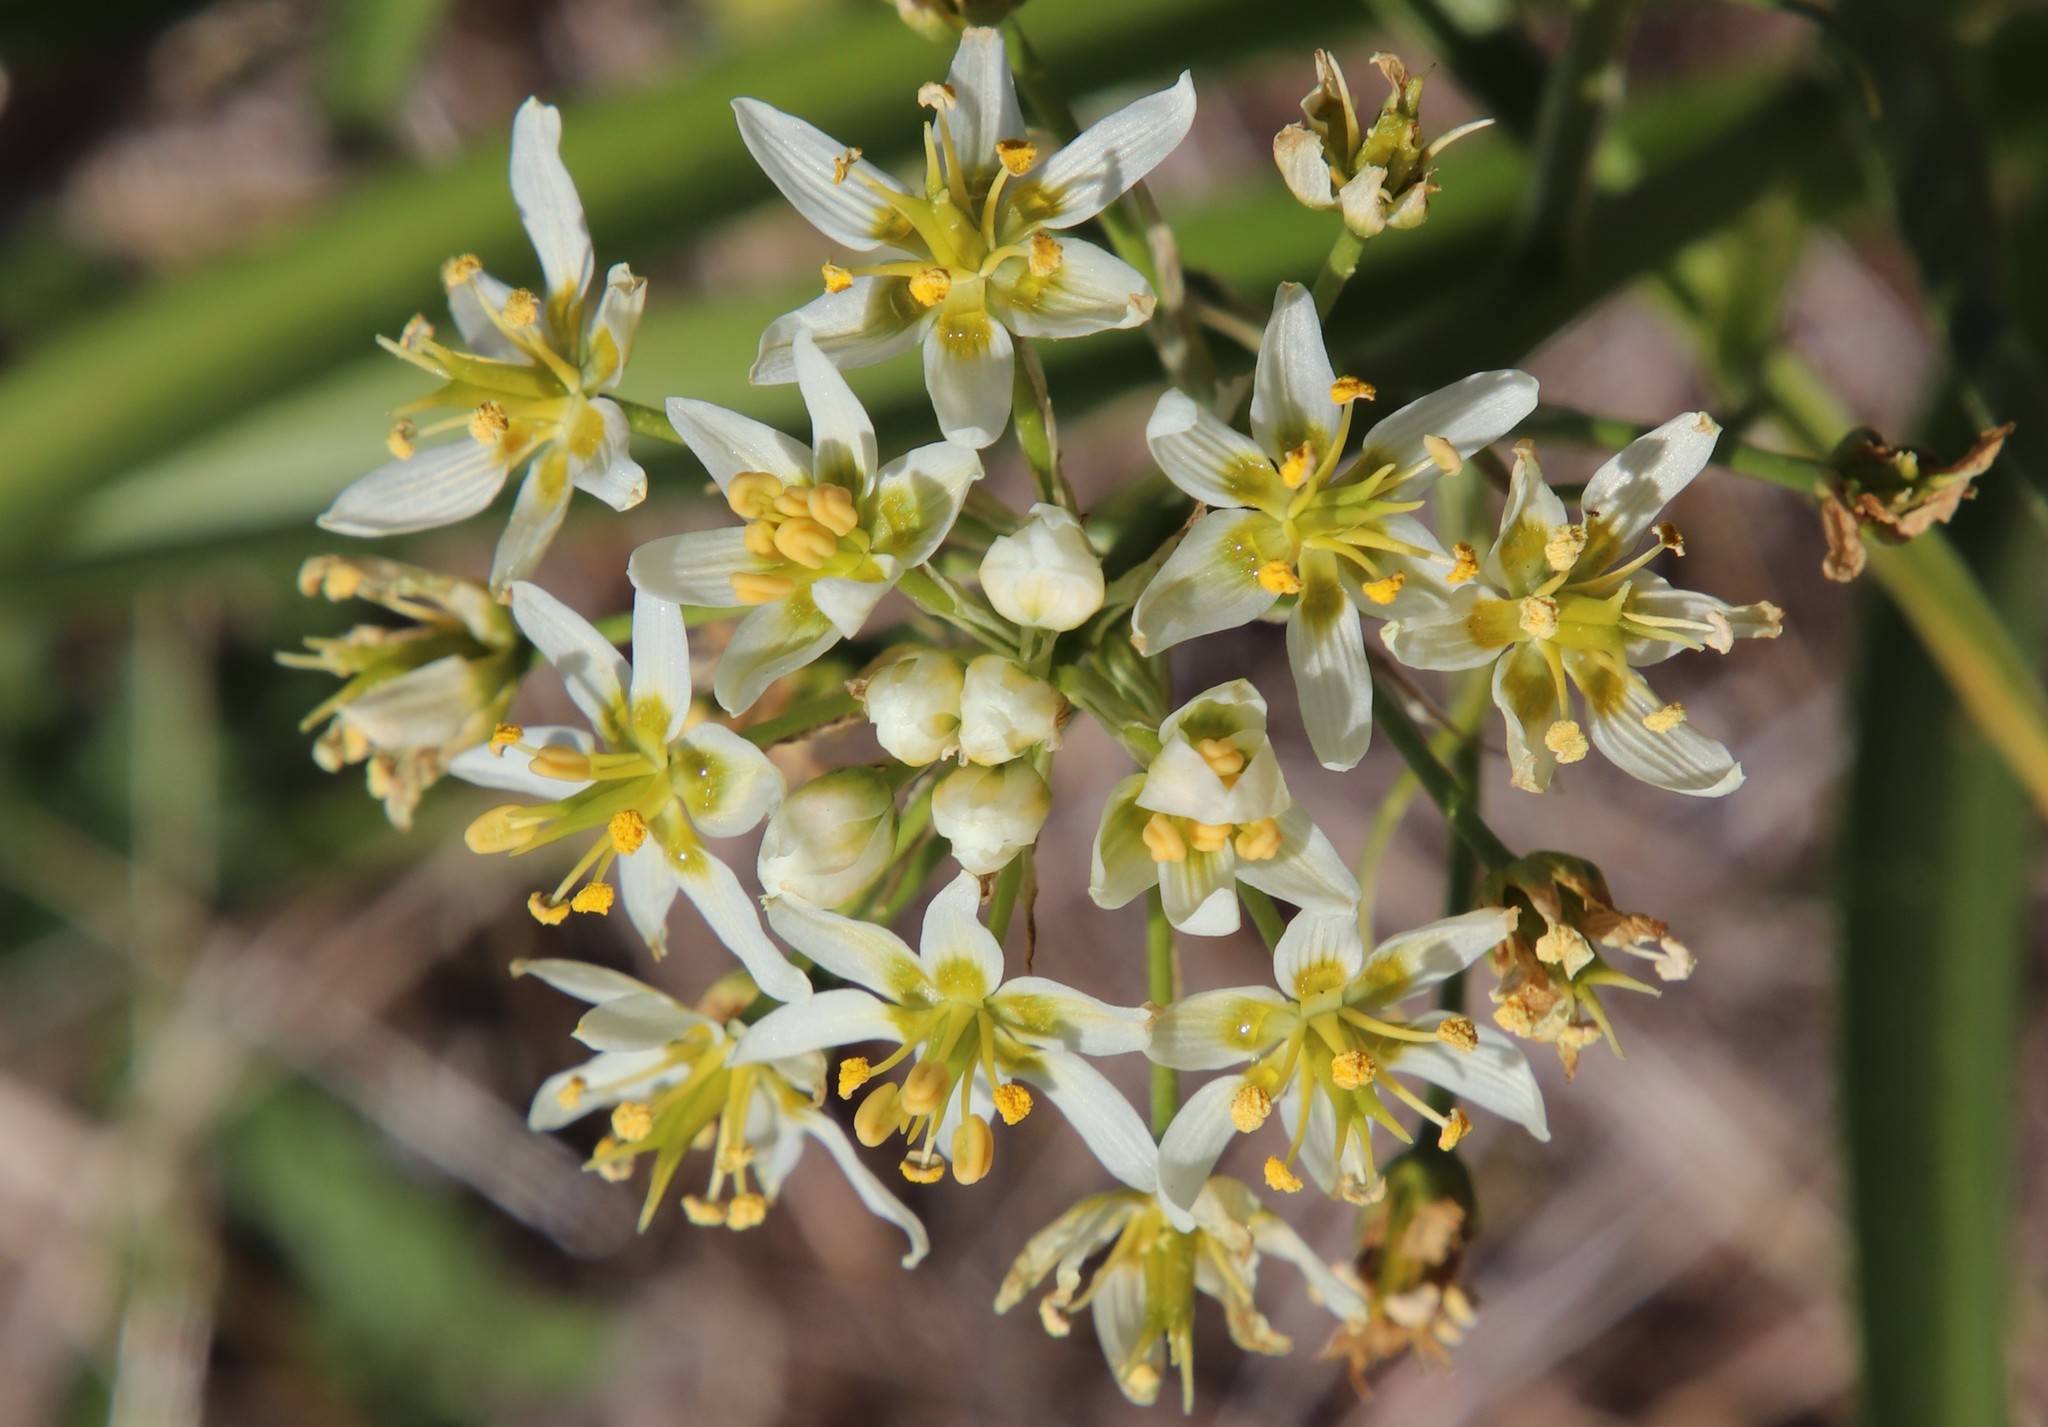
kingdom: Plantae
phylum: Tracheophyta
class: Liliopsida
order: Liliales
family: Melanthiaceae
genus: Toxicoscordion
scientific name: Toxicoscordion fremontii
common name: Fremont's death camas
